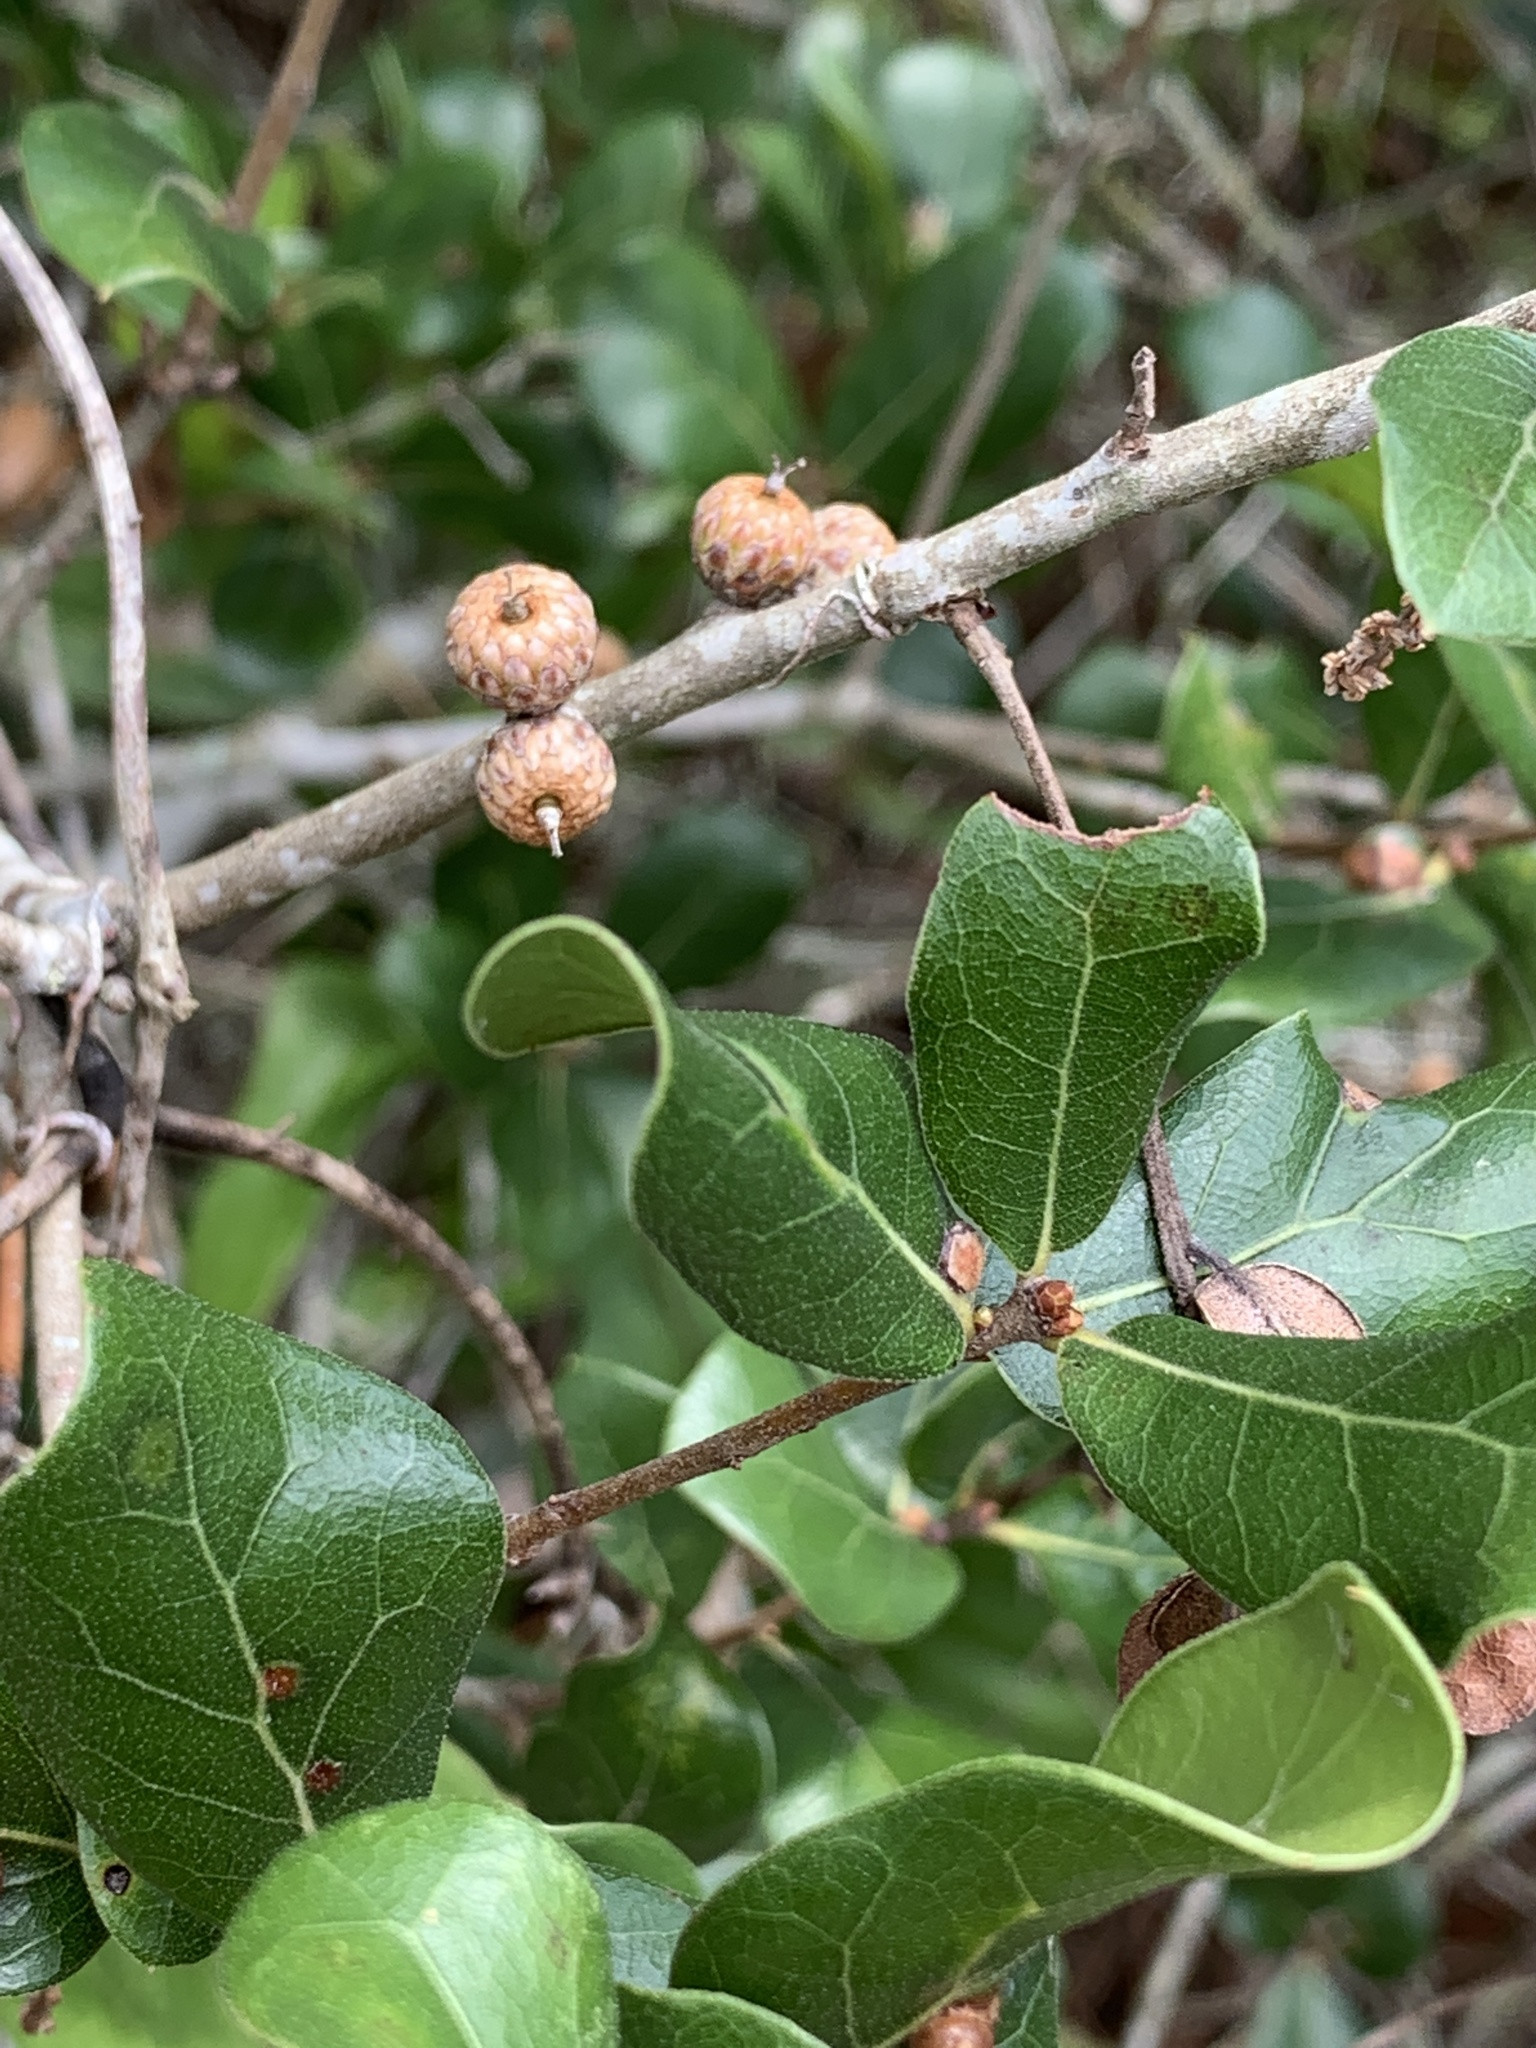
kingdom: Plantae
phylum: Tracheophyta
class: Magnoliopsida
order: Fagales
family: Fagaceae
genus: Quercus
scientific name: Quercus myrtifolia
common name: Myrtle oak
